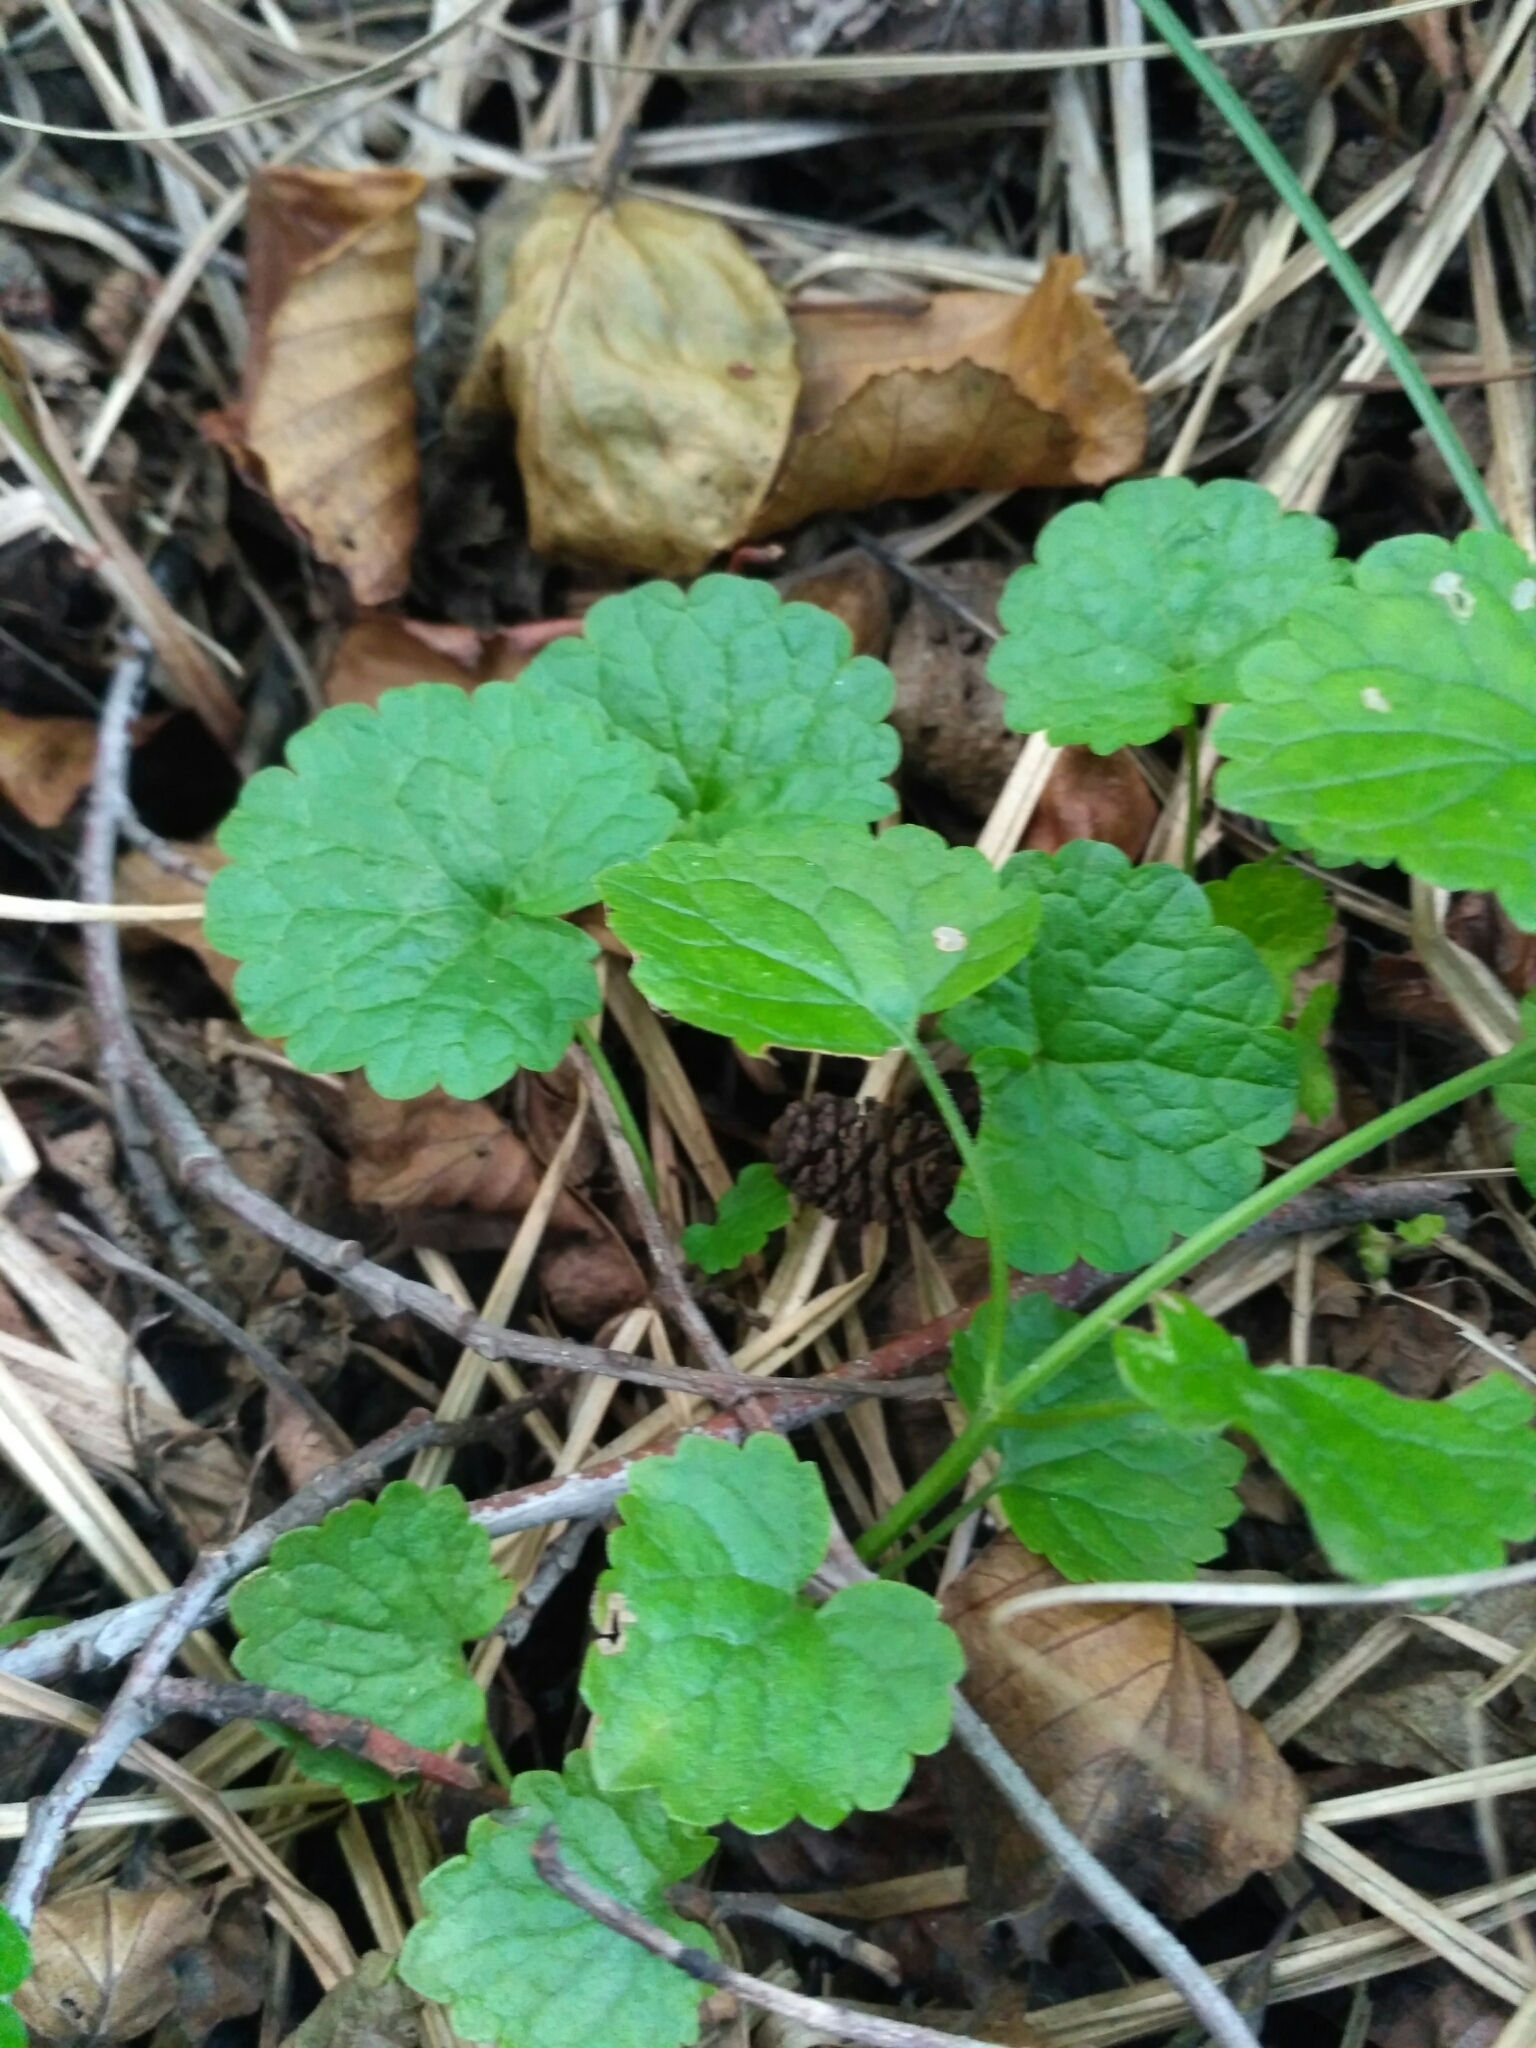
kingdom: Plantae
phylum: Tracheophyta
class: Magnoliopsida
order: Lamiales
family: Lamiaceae
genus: Glechoma
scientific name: Glechoma hederacea
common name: Ground ivy
